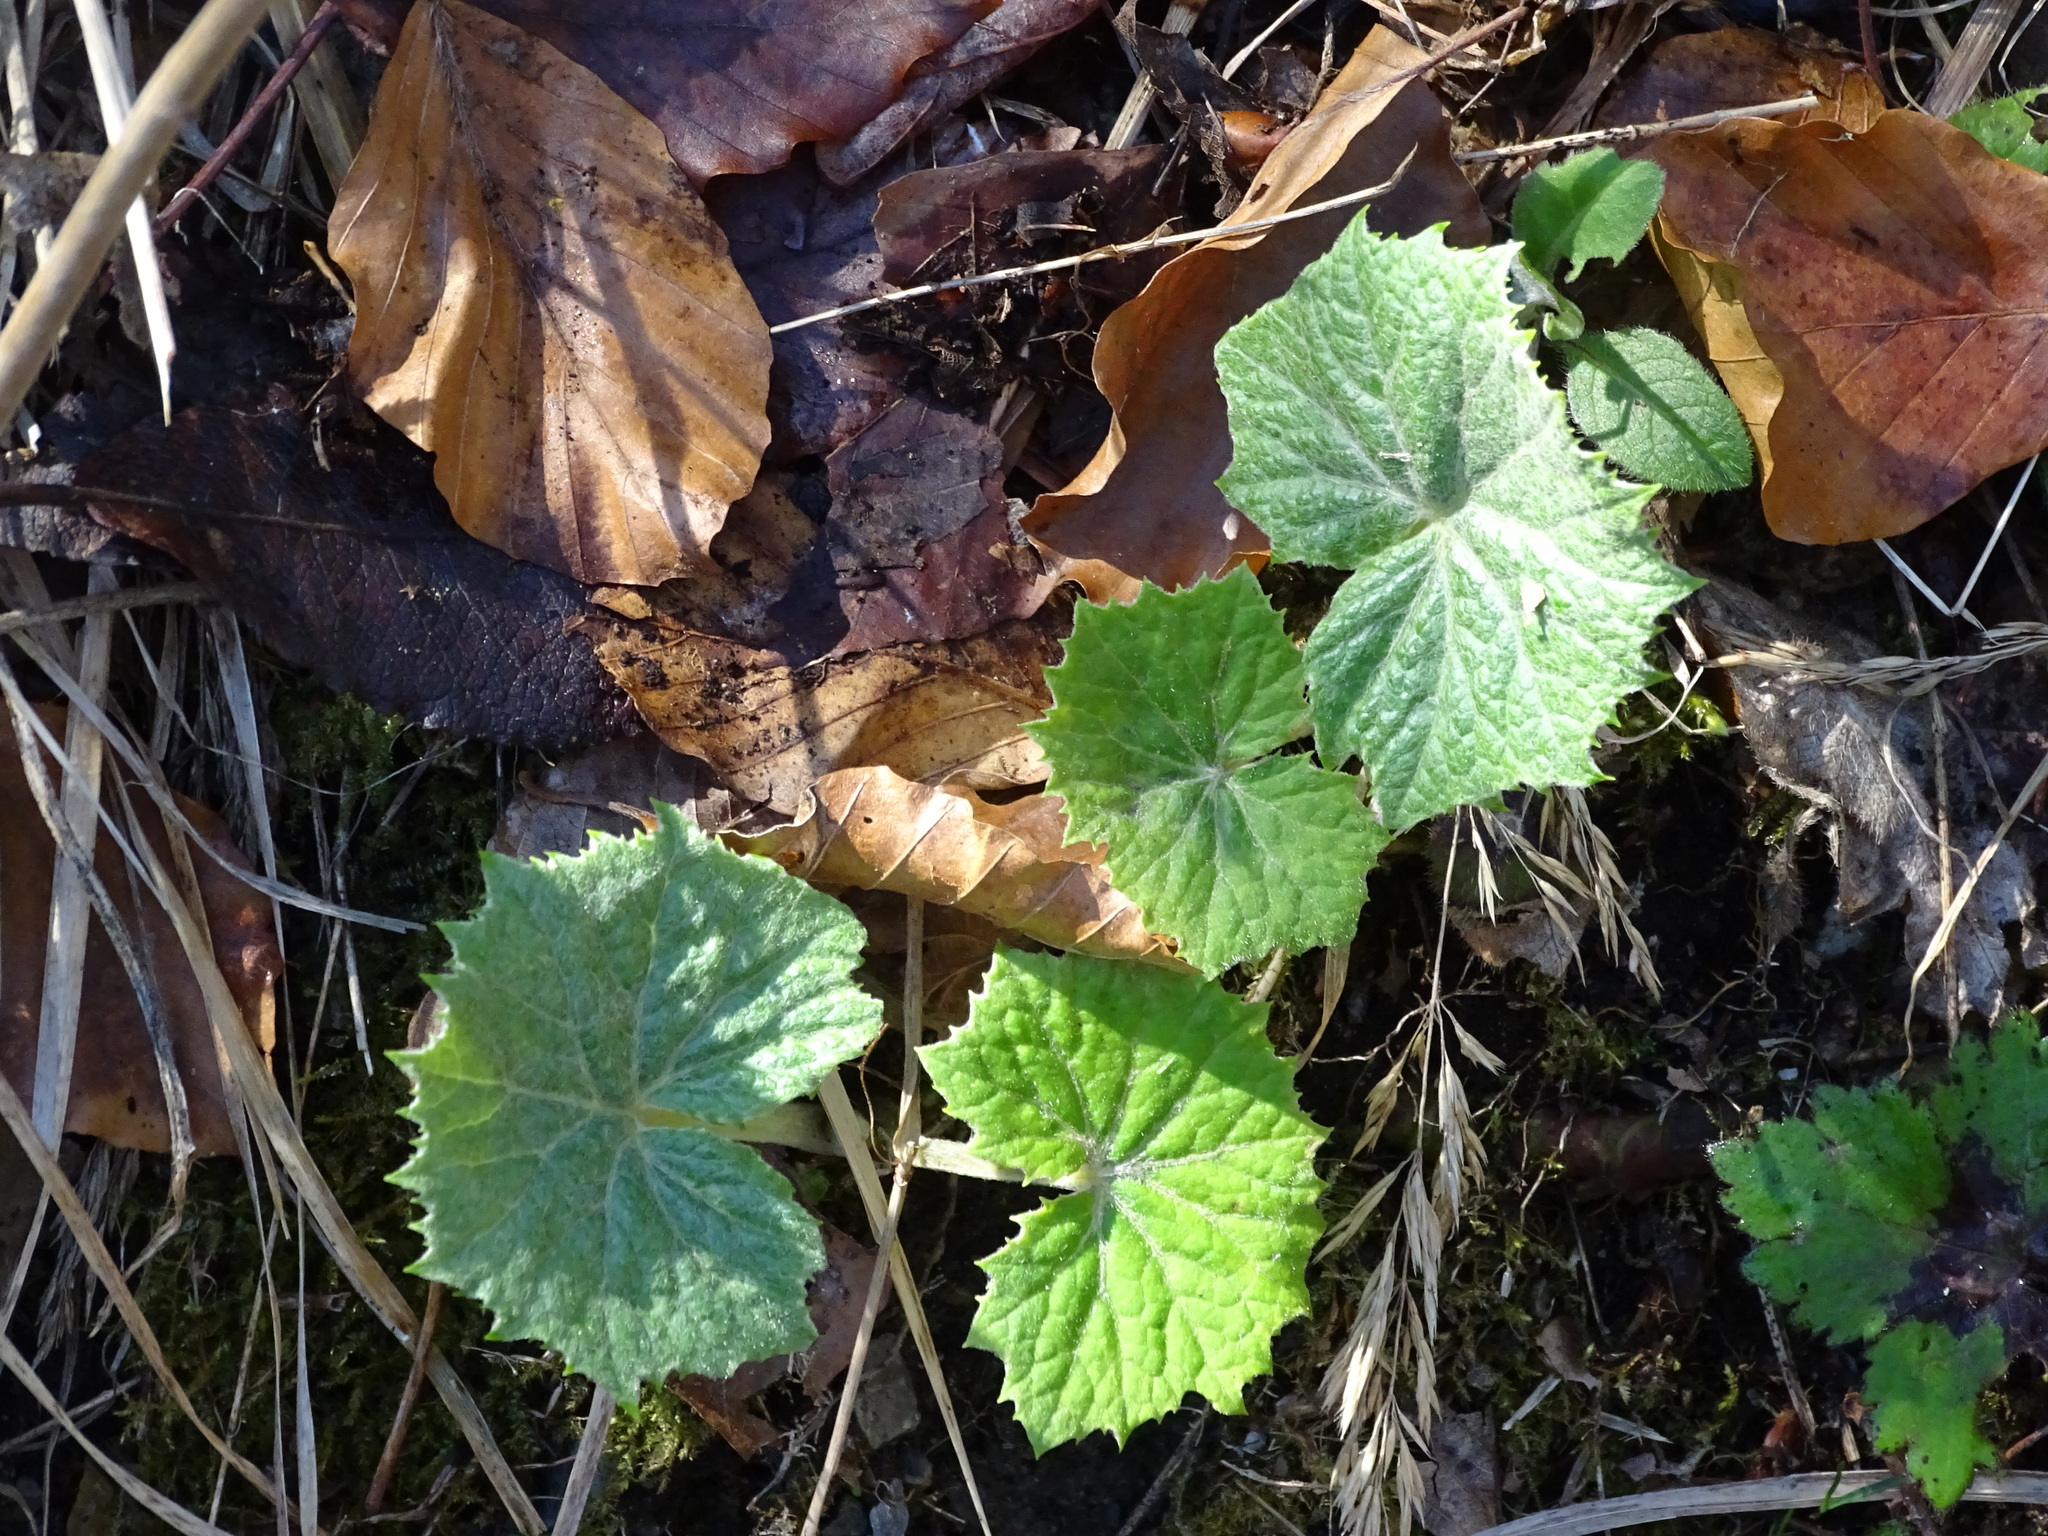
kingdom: Plantae
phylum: Tracheophyta
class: Magnoliopsida
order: Asterales
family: Asteraceae
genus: Petasites
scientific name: Petasites albus
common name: White butterbur
